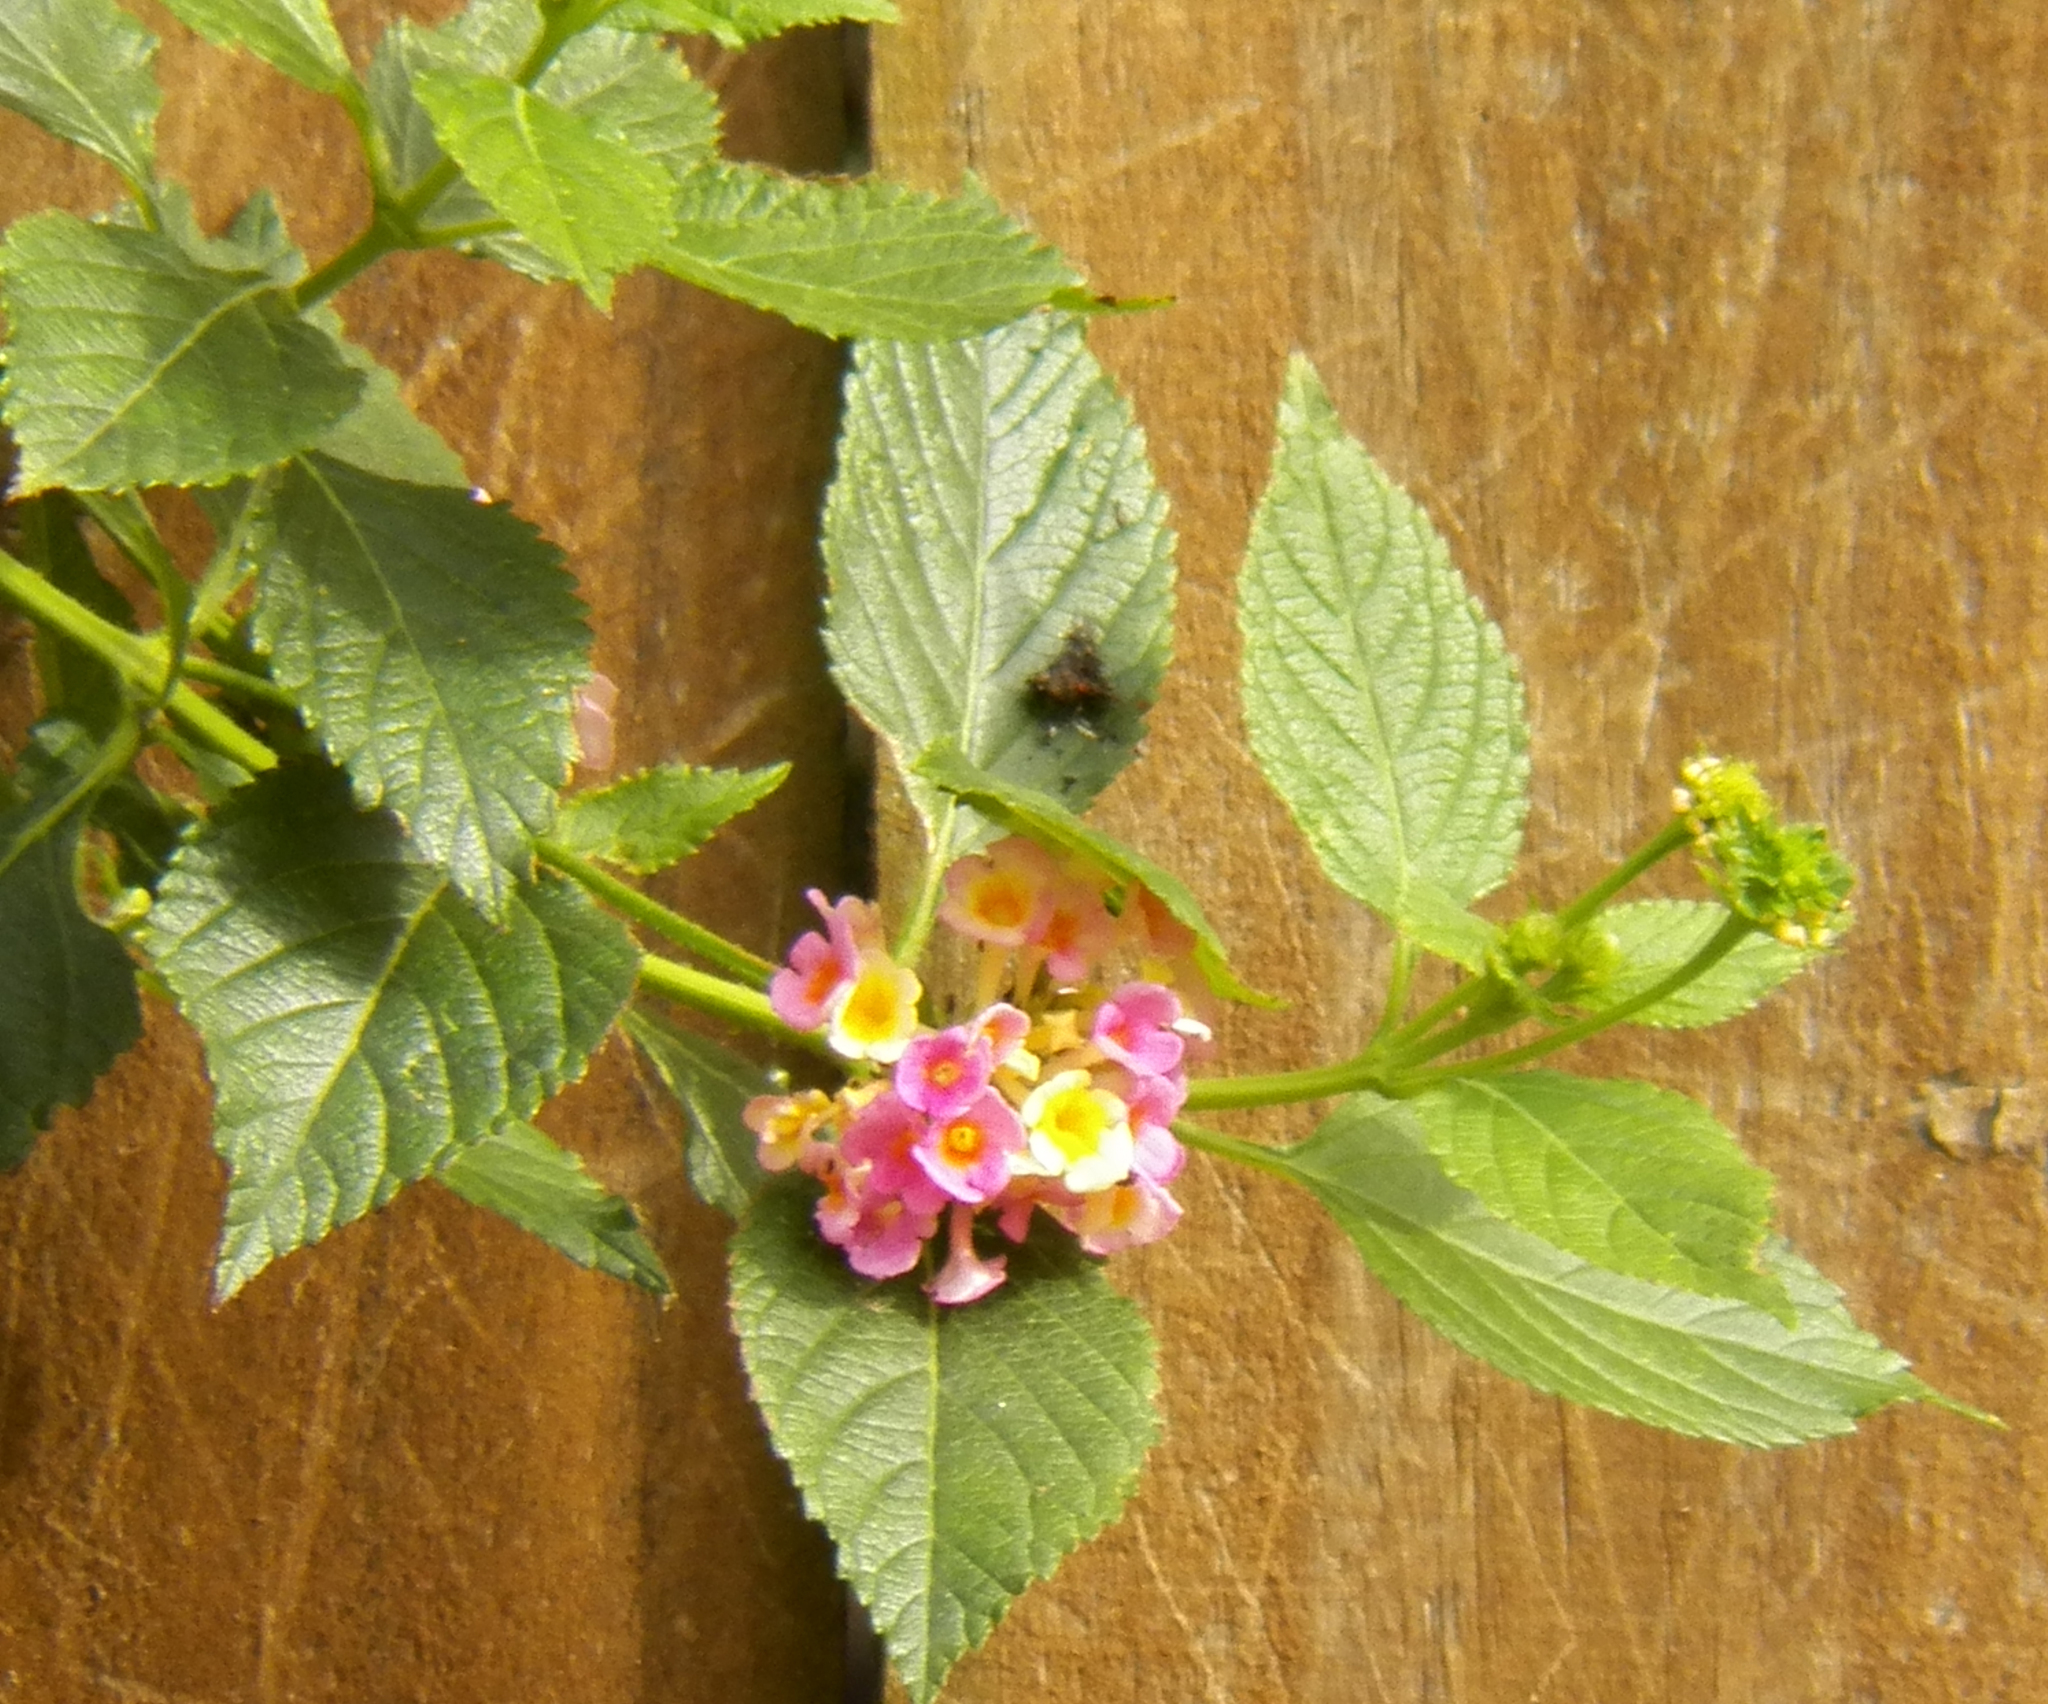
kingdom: Plantae
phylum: Tracheophyta
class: Magnoliopsida
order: Lamiales
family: Verbenaceae
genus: Lantana
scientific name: Lantana strigocamara
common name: Lantana
